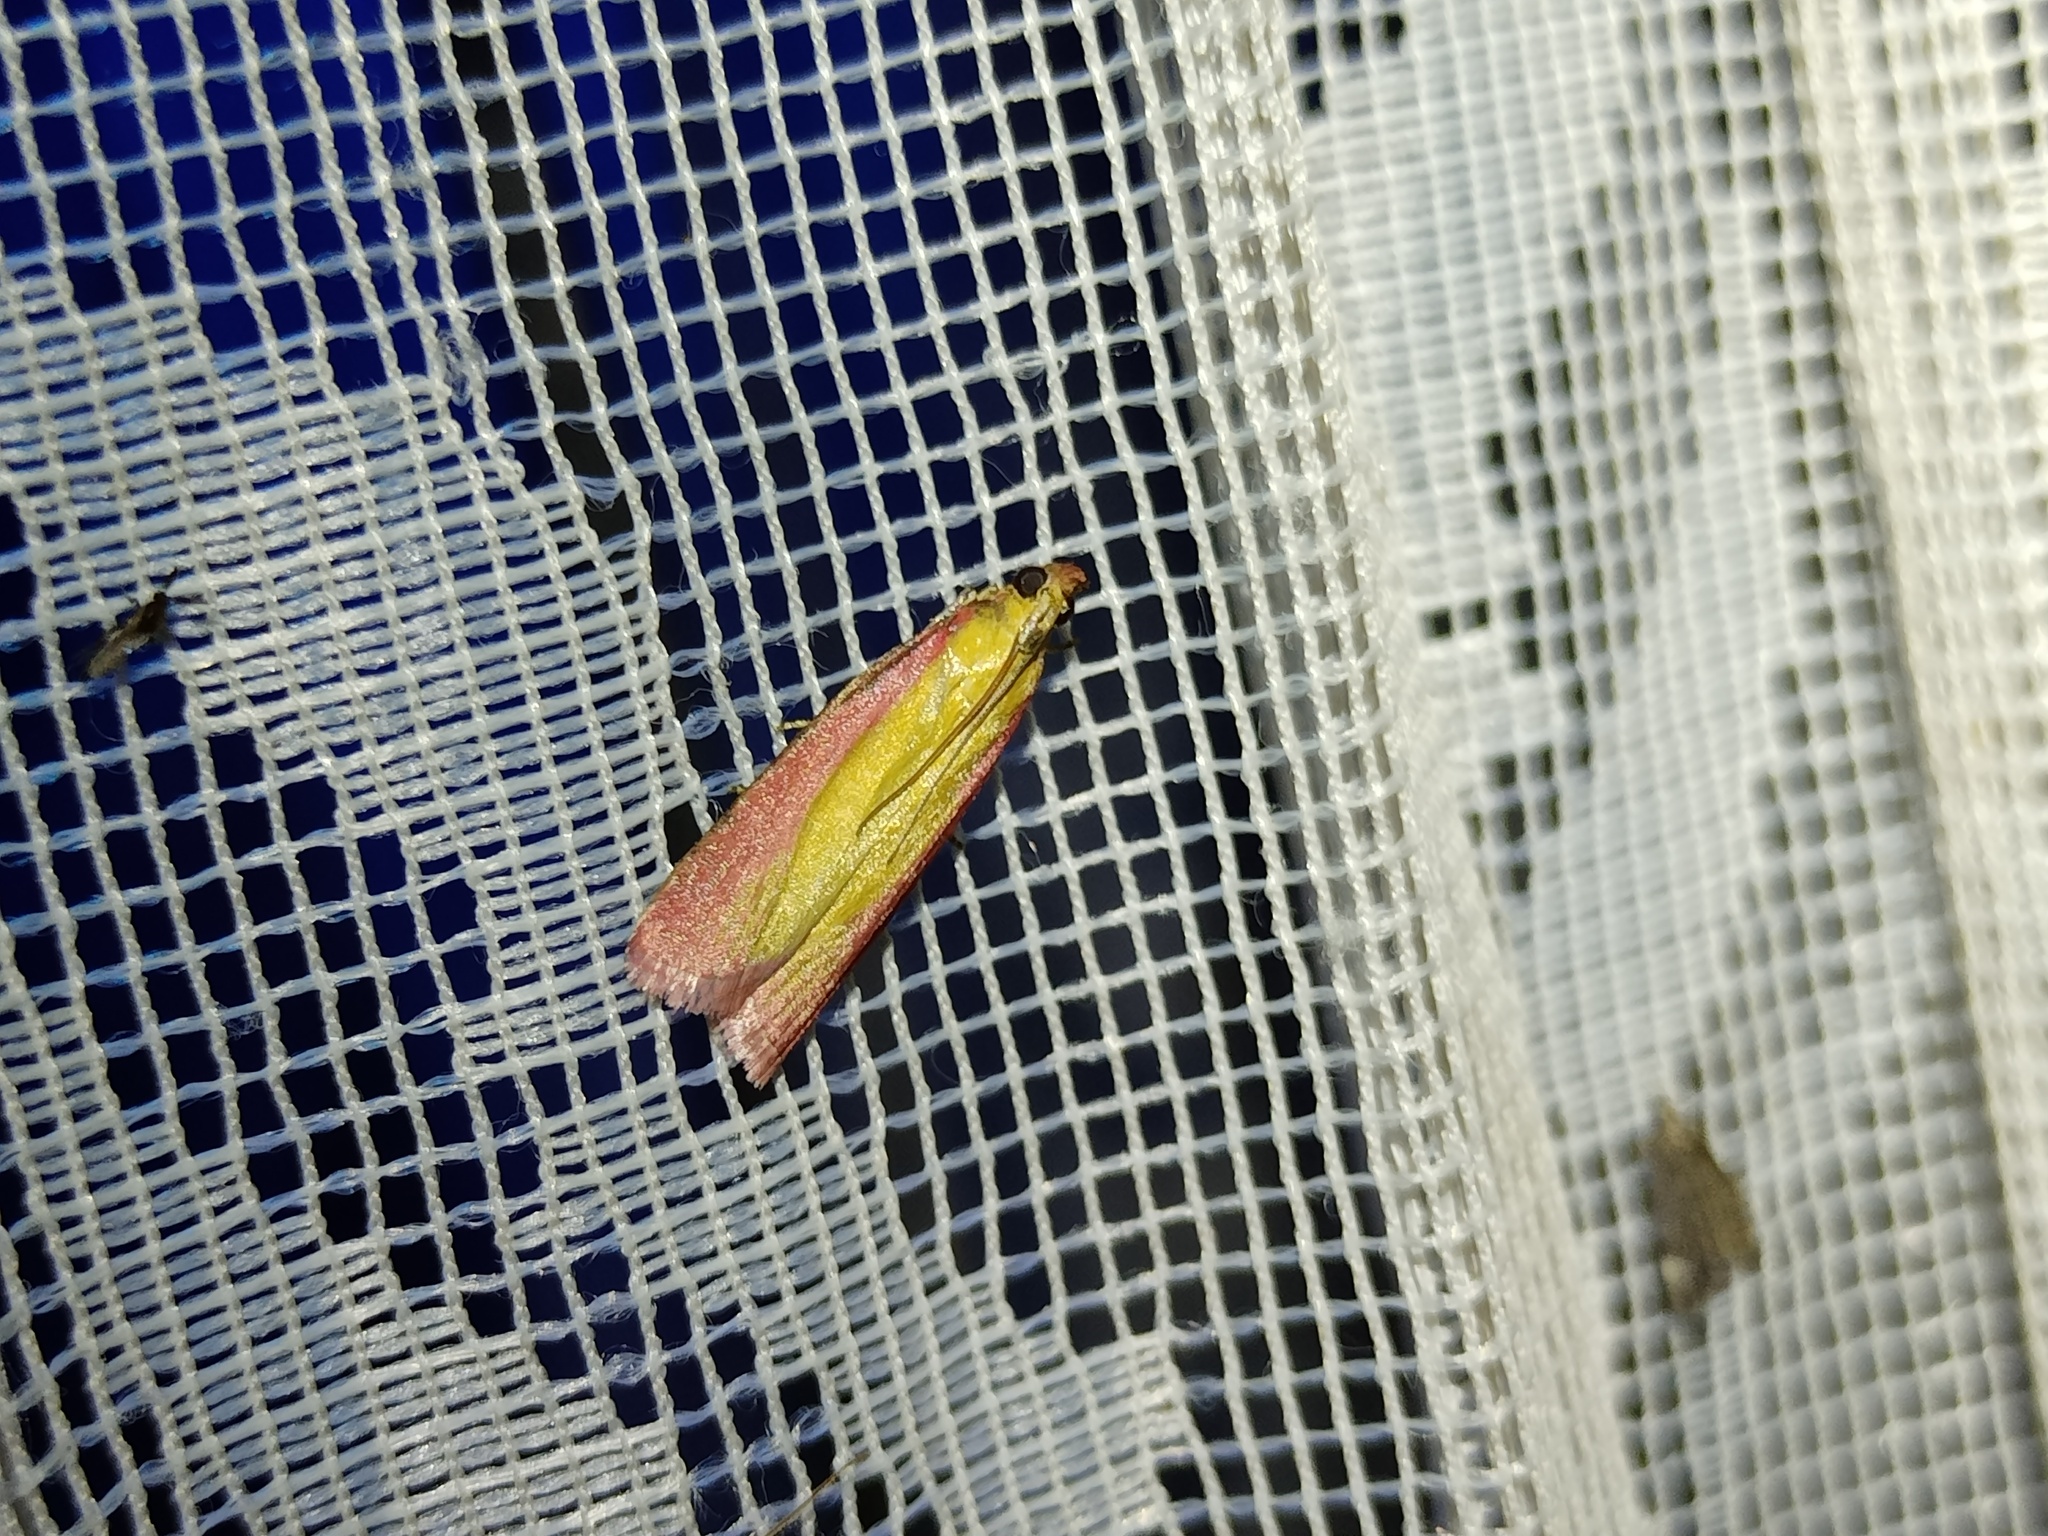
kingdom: Animalia
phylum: Arthropoda
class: Insecta
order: Lepidoptera
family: Pyralidae
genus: Oncocera
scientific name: Oncocera semirubella
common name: Rosy-striped knot-horn
